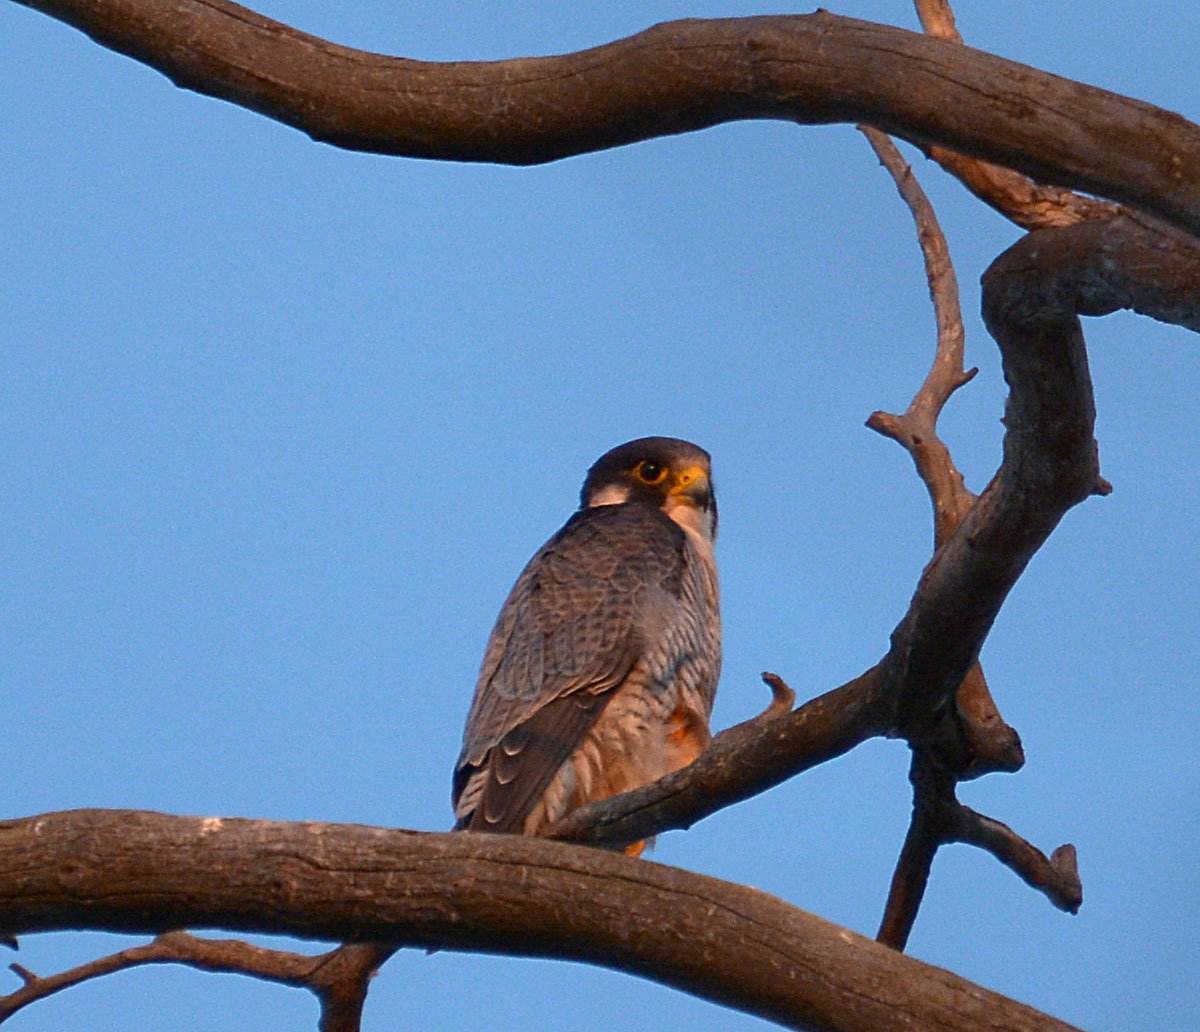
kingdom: Animalia
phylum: Chordata
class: Aves
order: Falconiformes
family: Falconidae
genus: Falco
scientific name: Falco peregrinus
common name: Peregrine falcon
